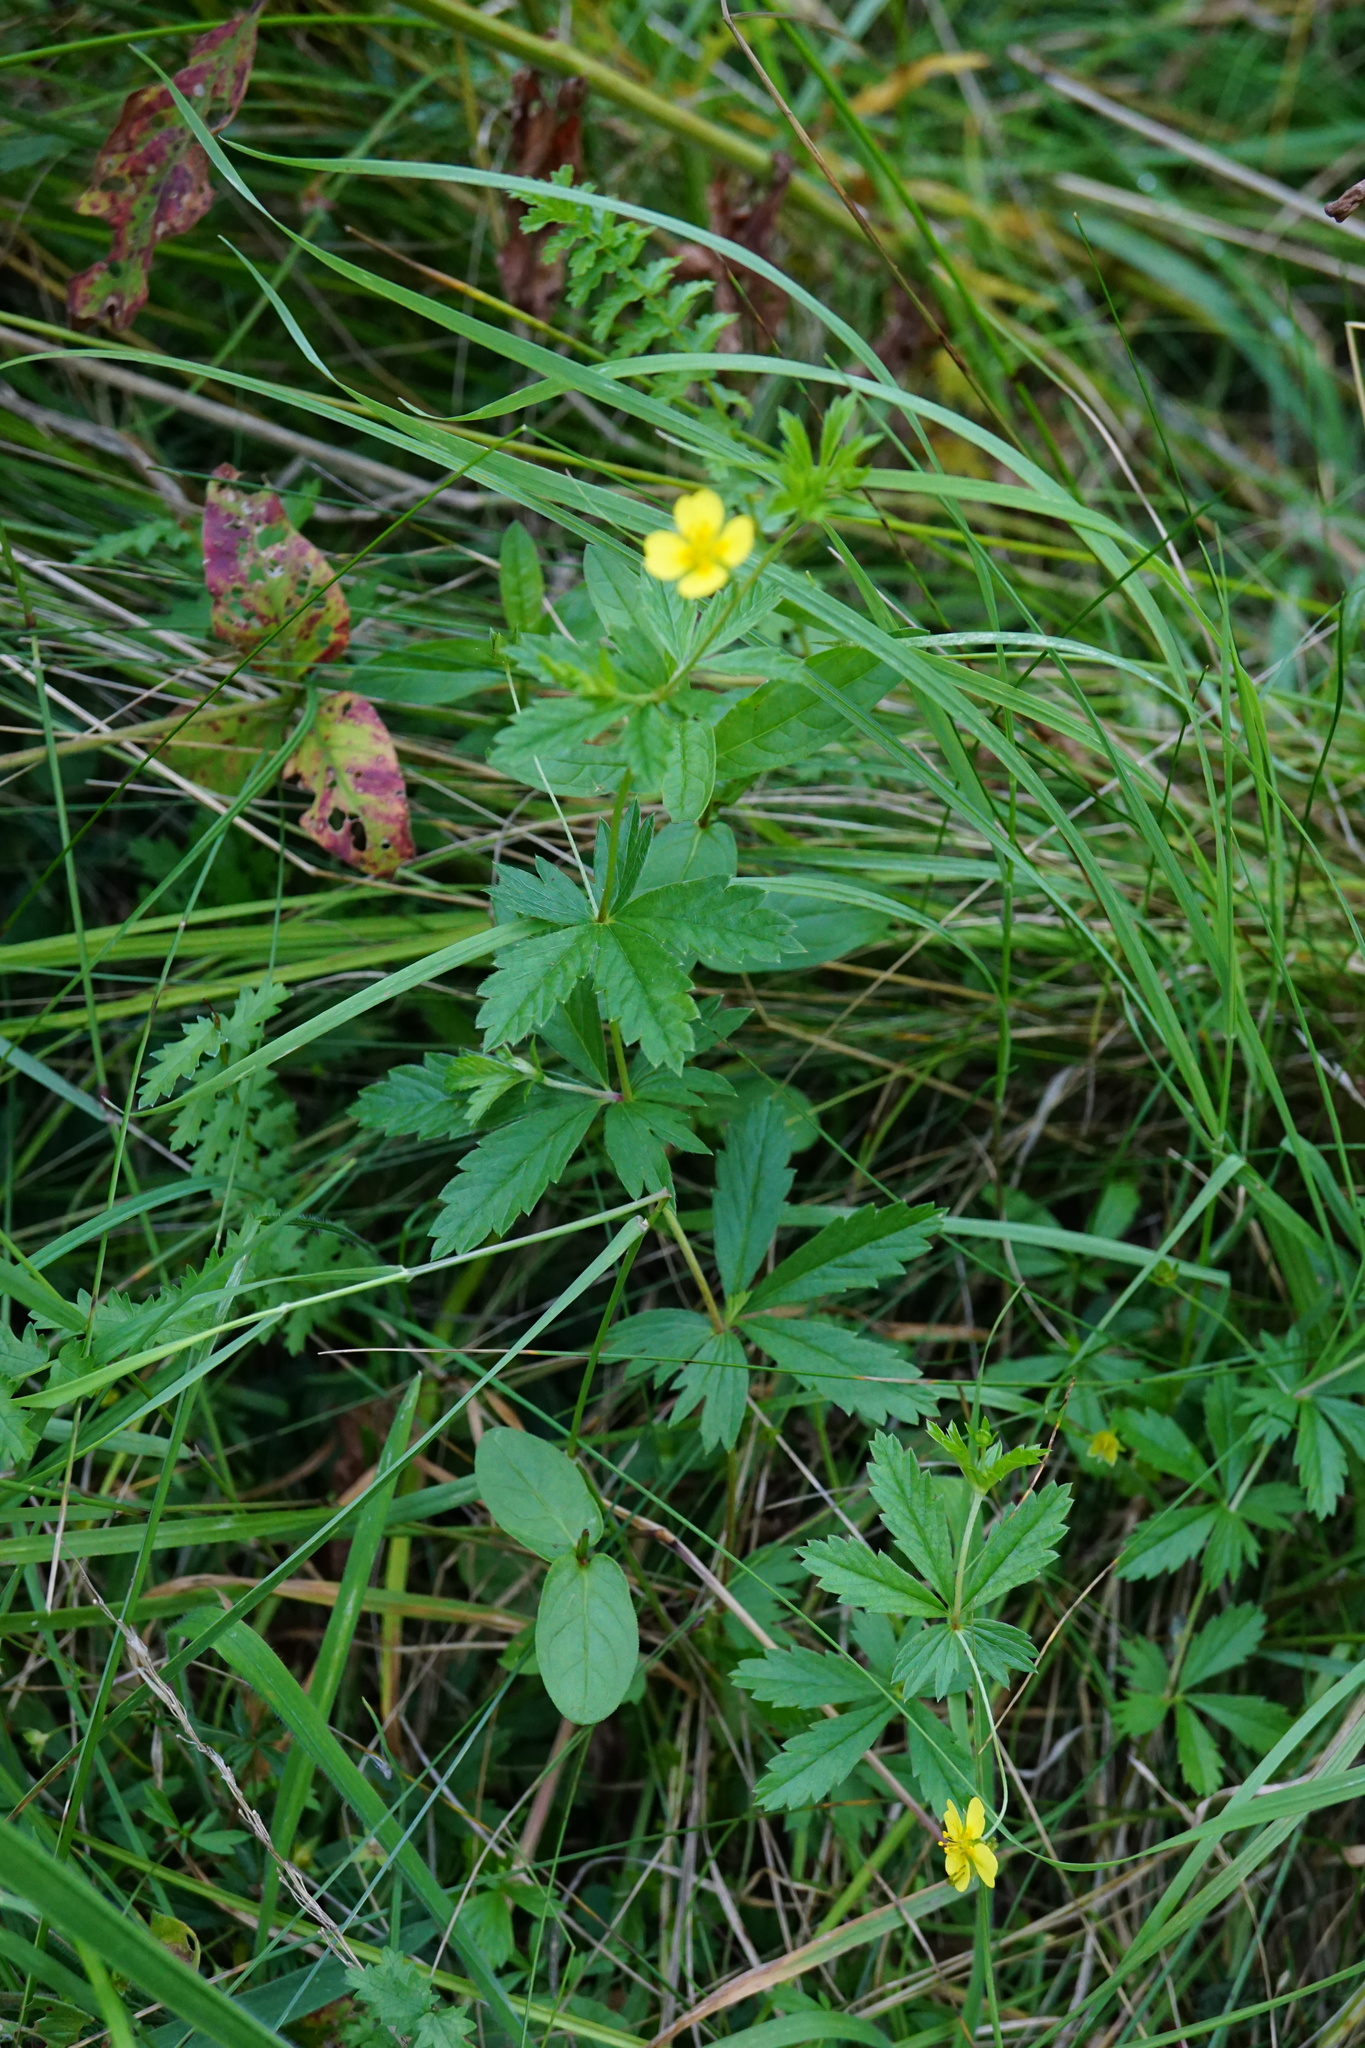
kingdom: Plantae
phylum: Tracheophyta
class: Magnoliopsida
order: Rosales
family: Rosaceae
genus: Potentilla
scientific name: Potentilla erecta
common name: Tormentil
